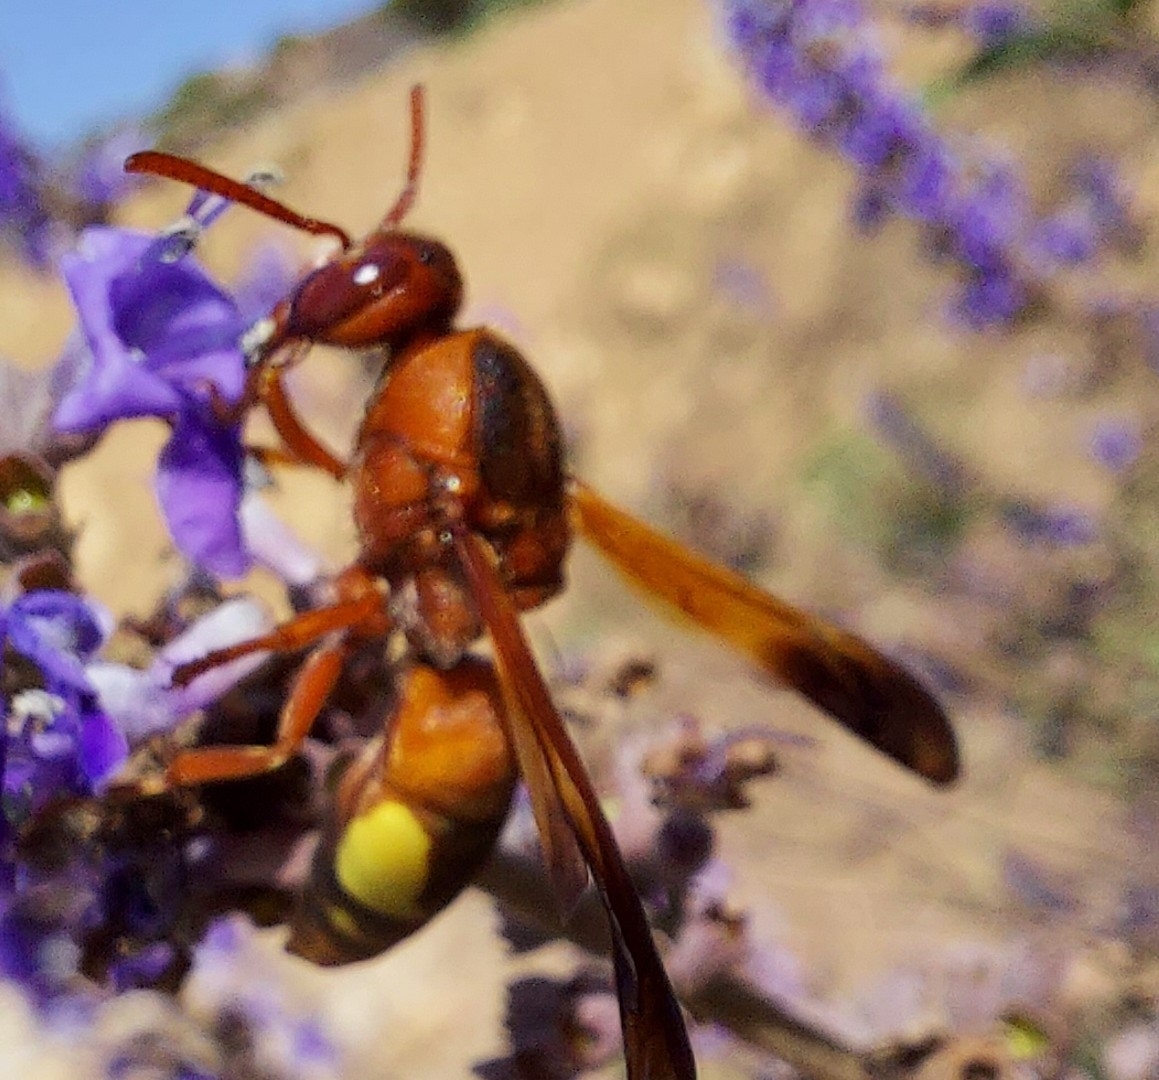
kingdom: Animalia
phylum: Arthropoda
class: Insecta
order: Hymenoptera
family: Eumenidae
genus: Rhynchium
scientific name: Rhynchium oculatum
